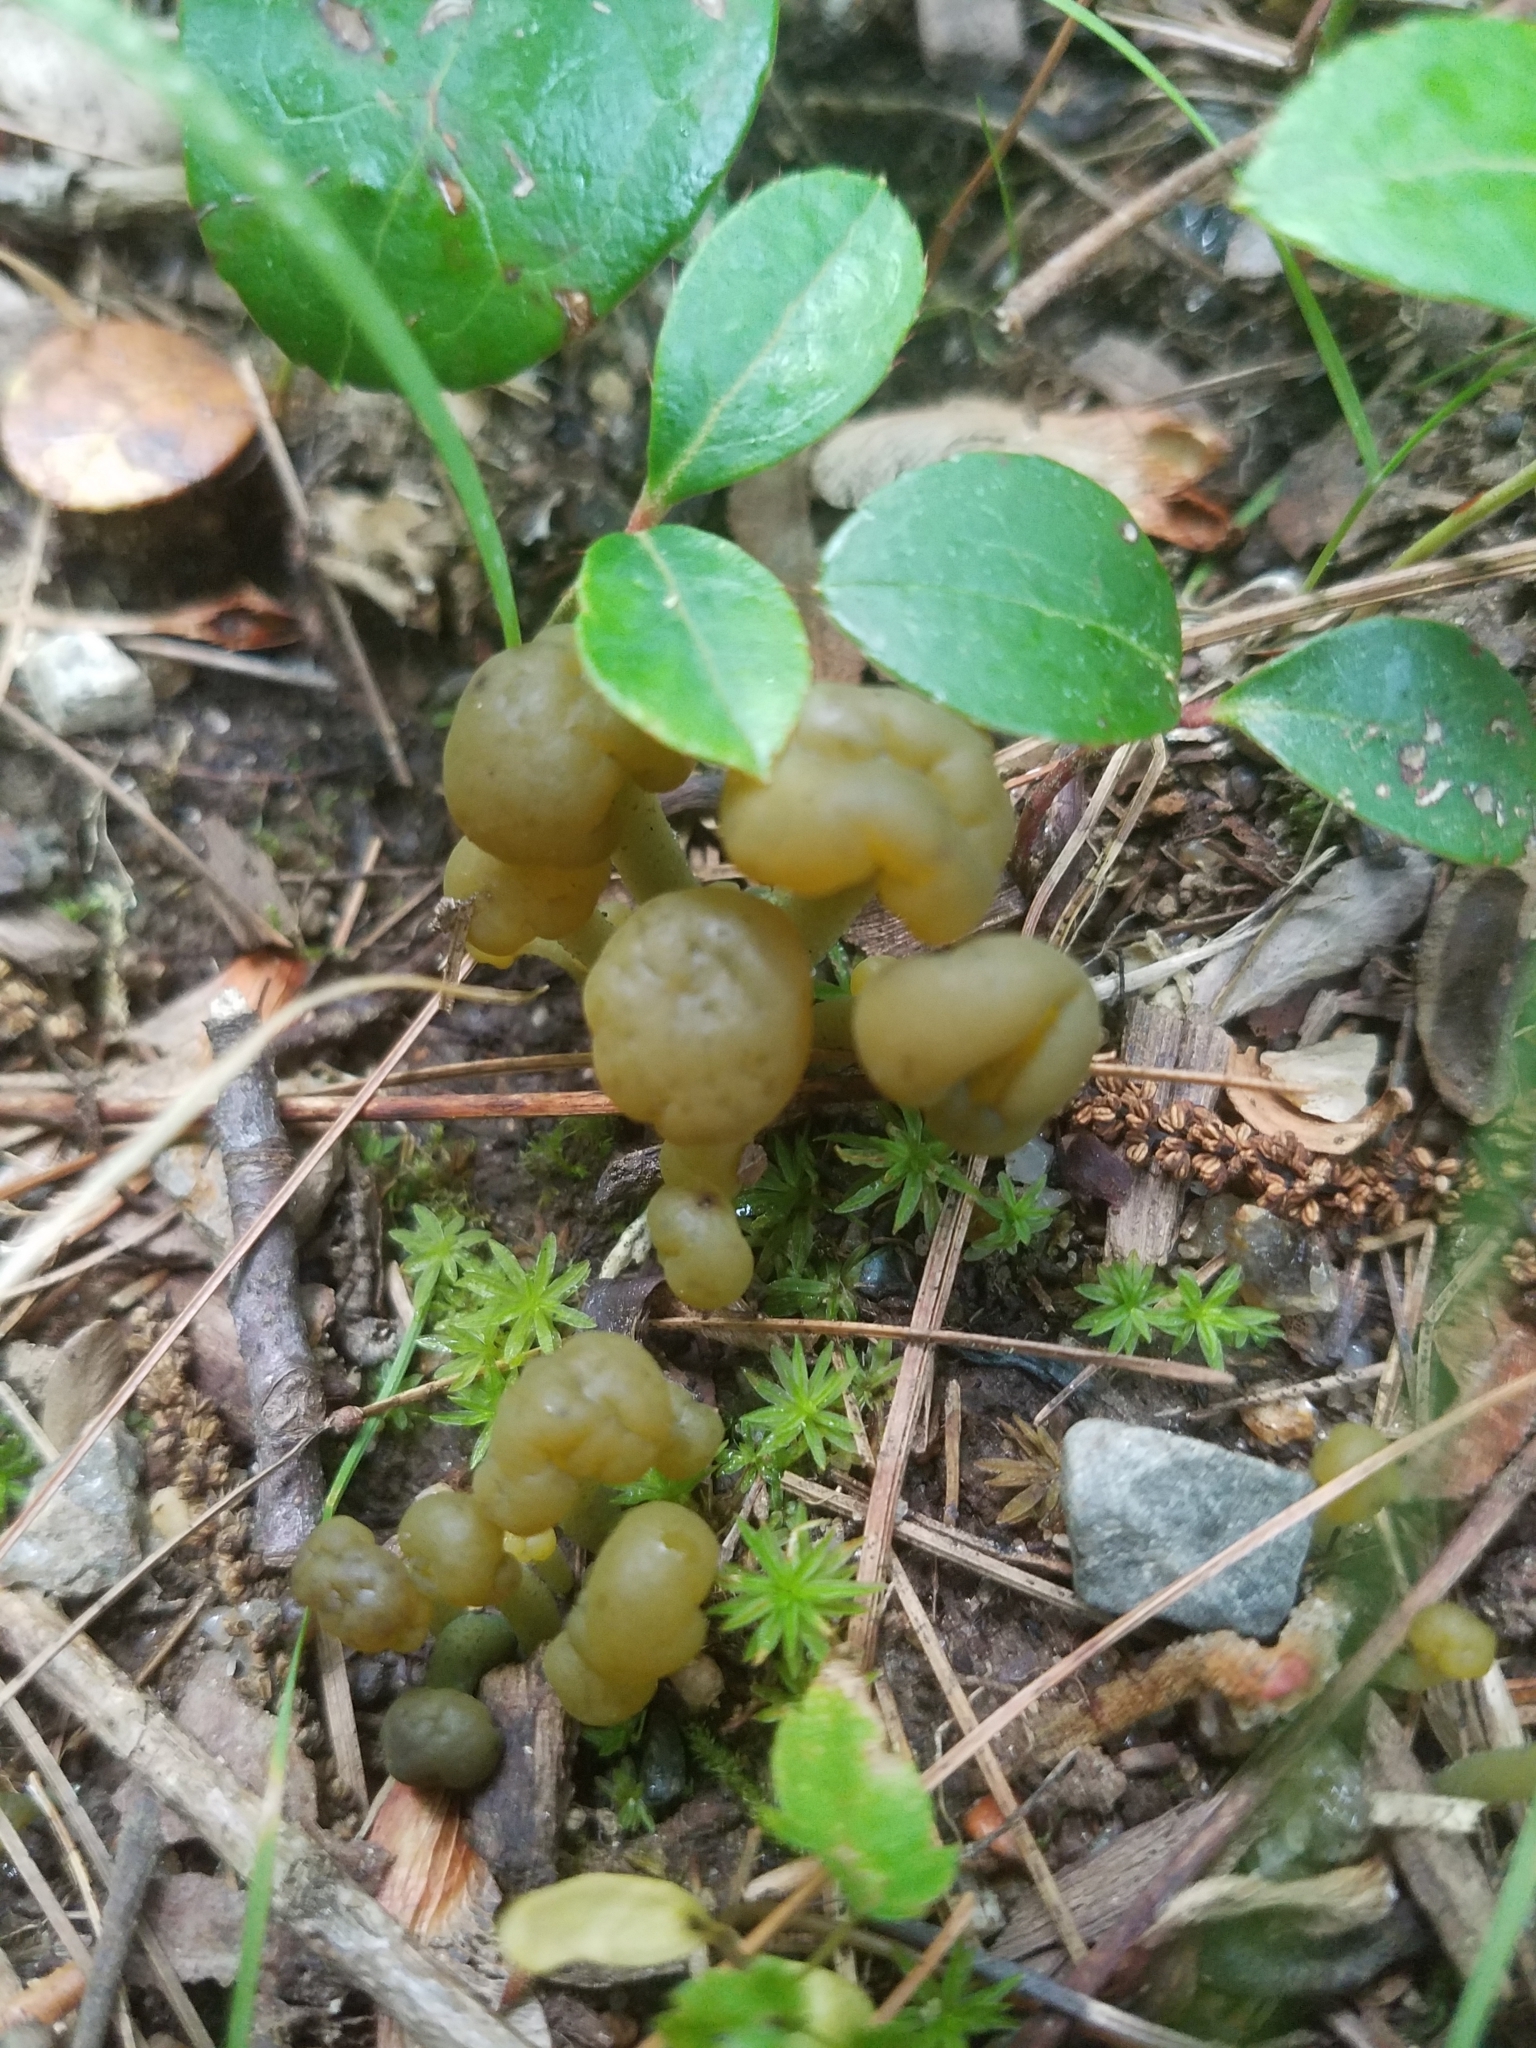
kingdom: Fungi
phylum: Ascomycota
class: Leotiomycetes
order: Leotiales
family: Leotiaceae
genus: Leotia
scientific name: Leotia lubrica
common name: Jellybaby
